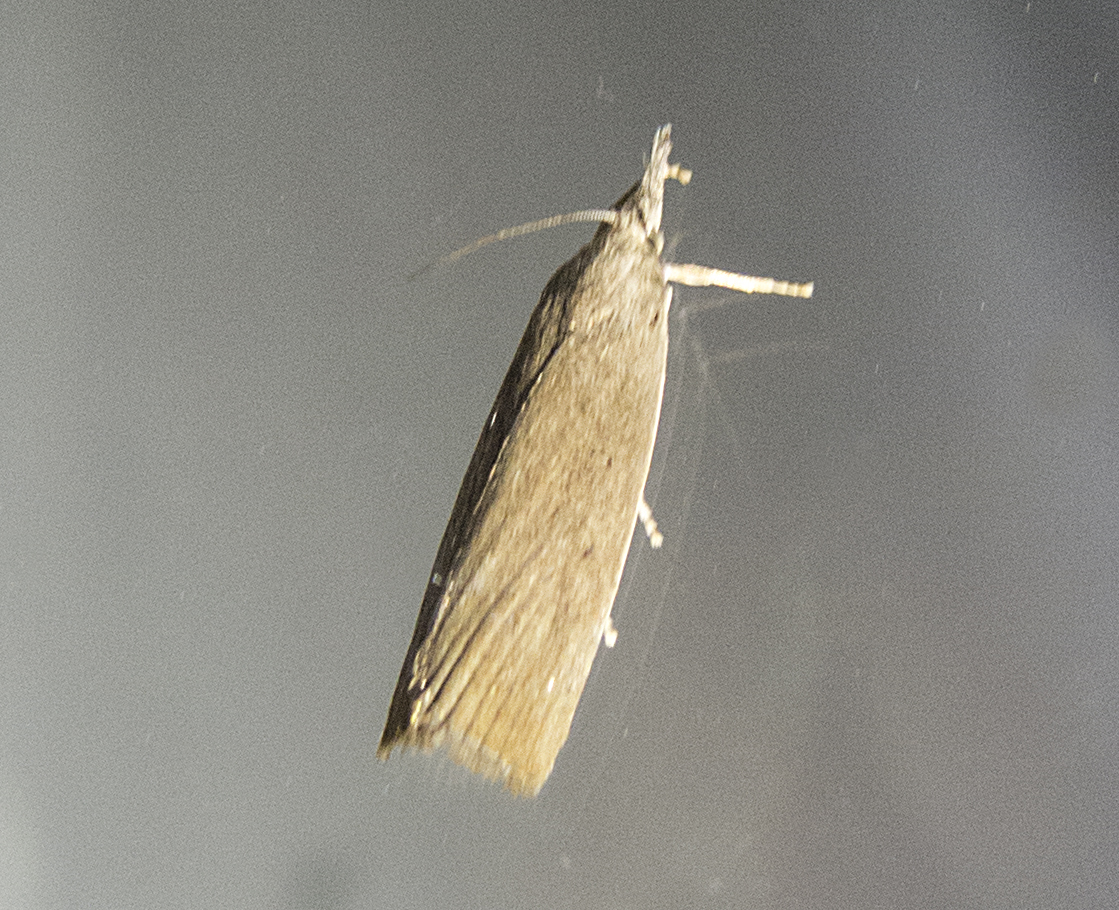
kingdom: Animalia
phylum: Arthropoda
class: Insecta
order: Lepidoptera
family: Crambidae
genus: Calamotropha
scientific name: Calamotropha paludella
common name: Bulrush veneer
